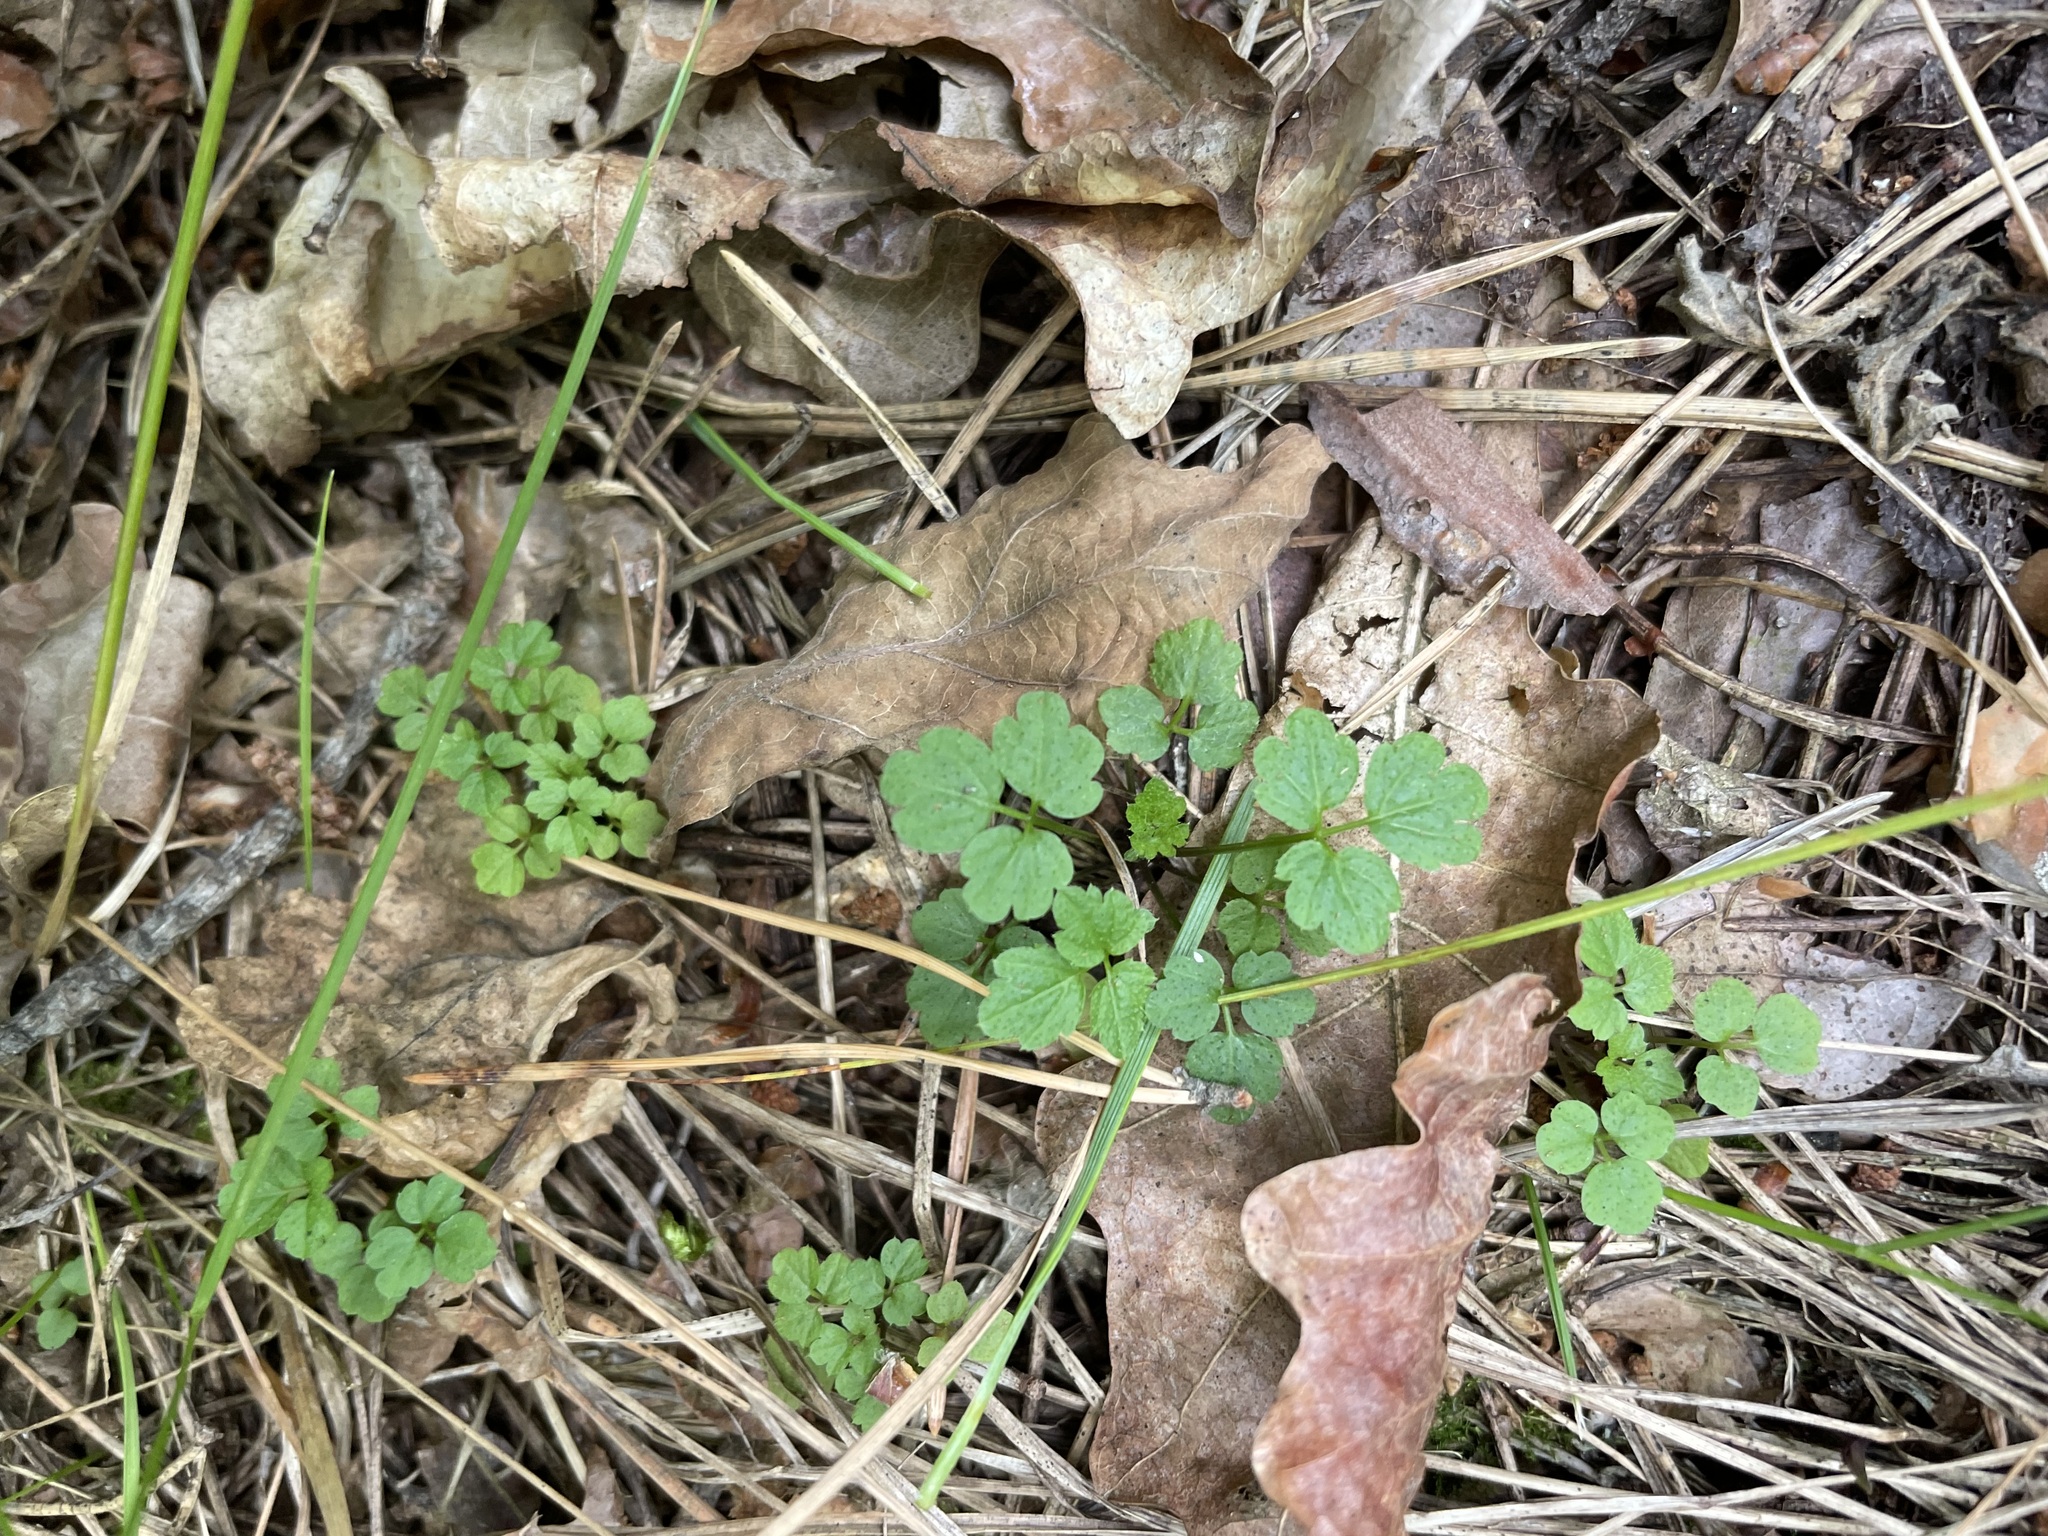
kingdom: Plantae
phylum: Tracheophyta
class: Magnoliopsida
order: Brassicales
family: Brassicaceae
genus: Cardamine
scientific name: Cardamine impatiens
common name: Narrow-leaved bitter-cress
